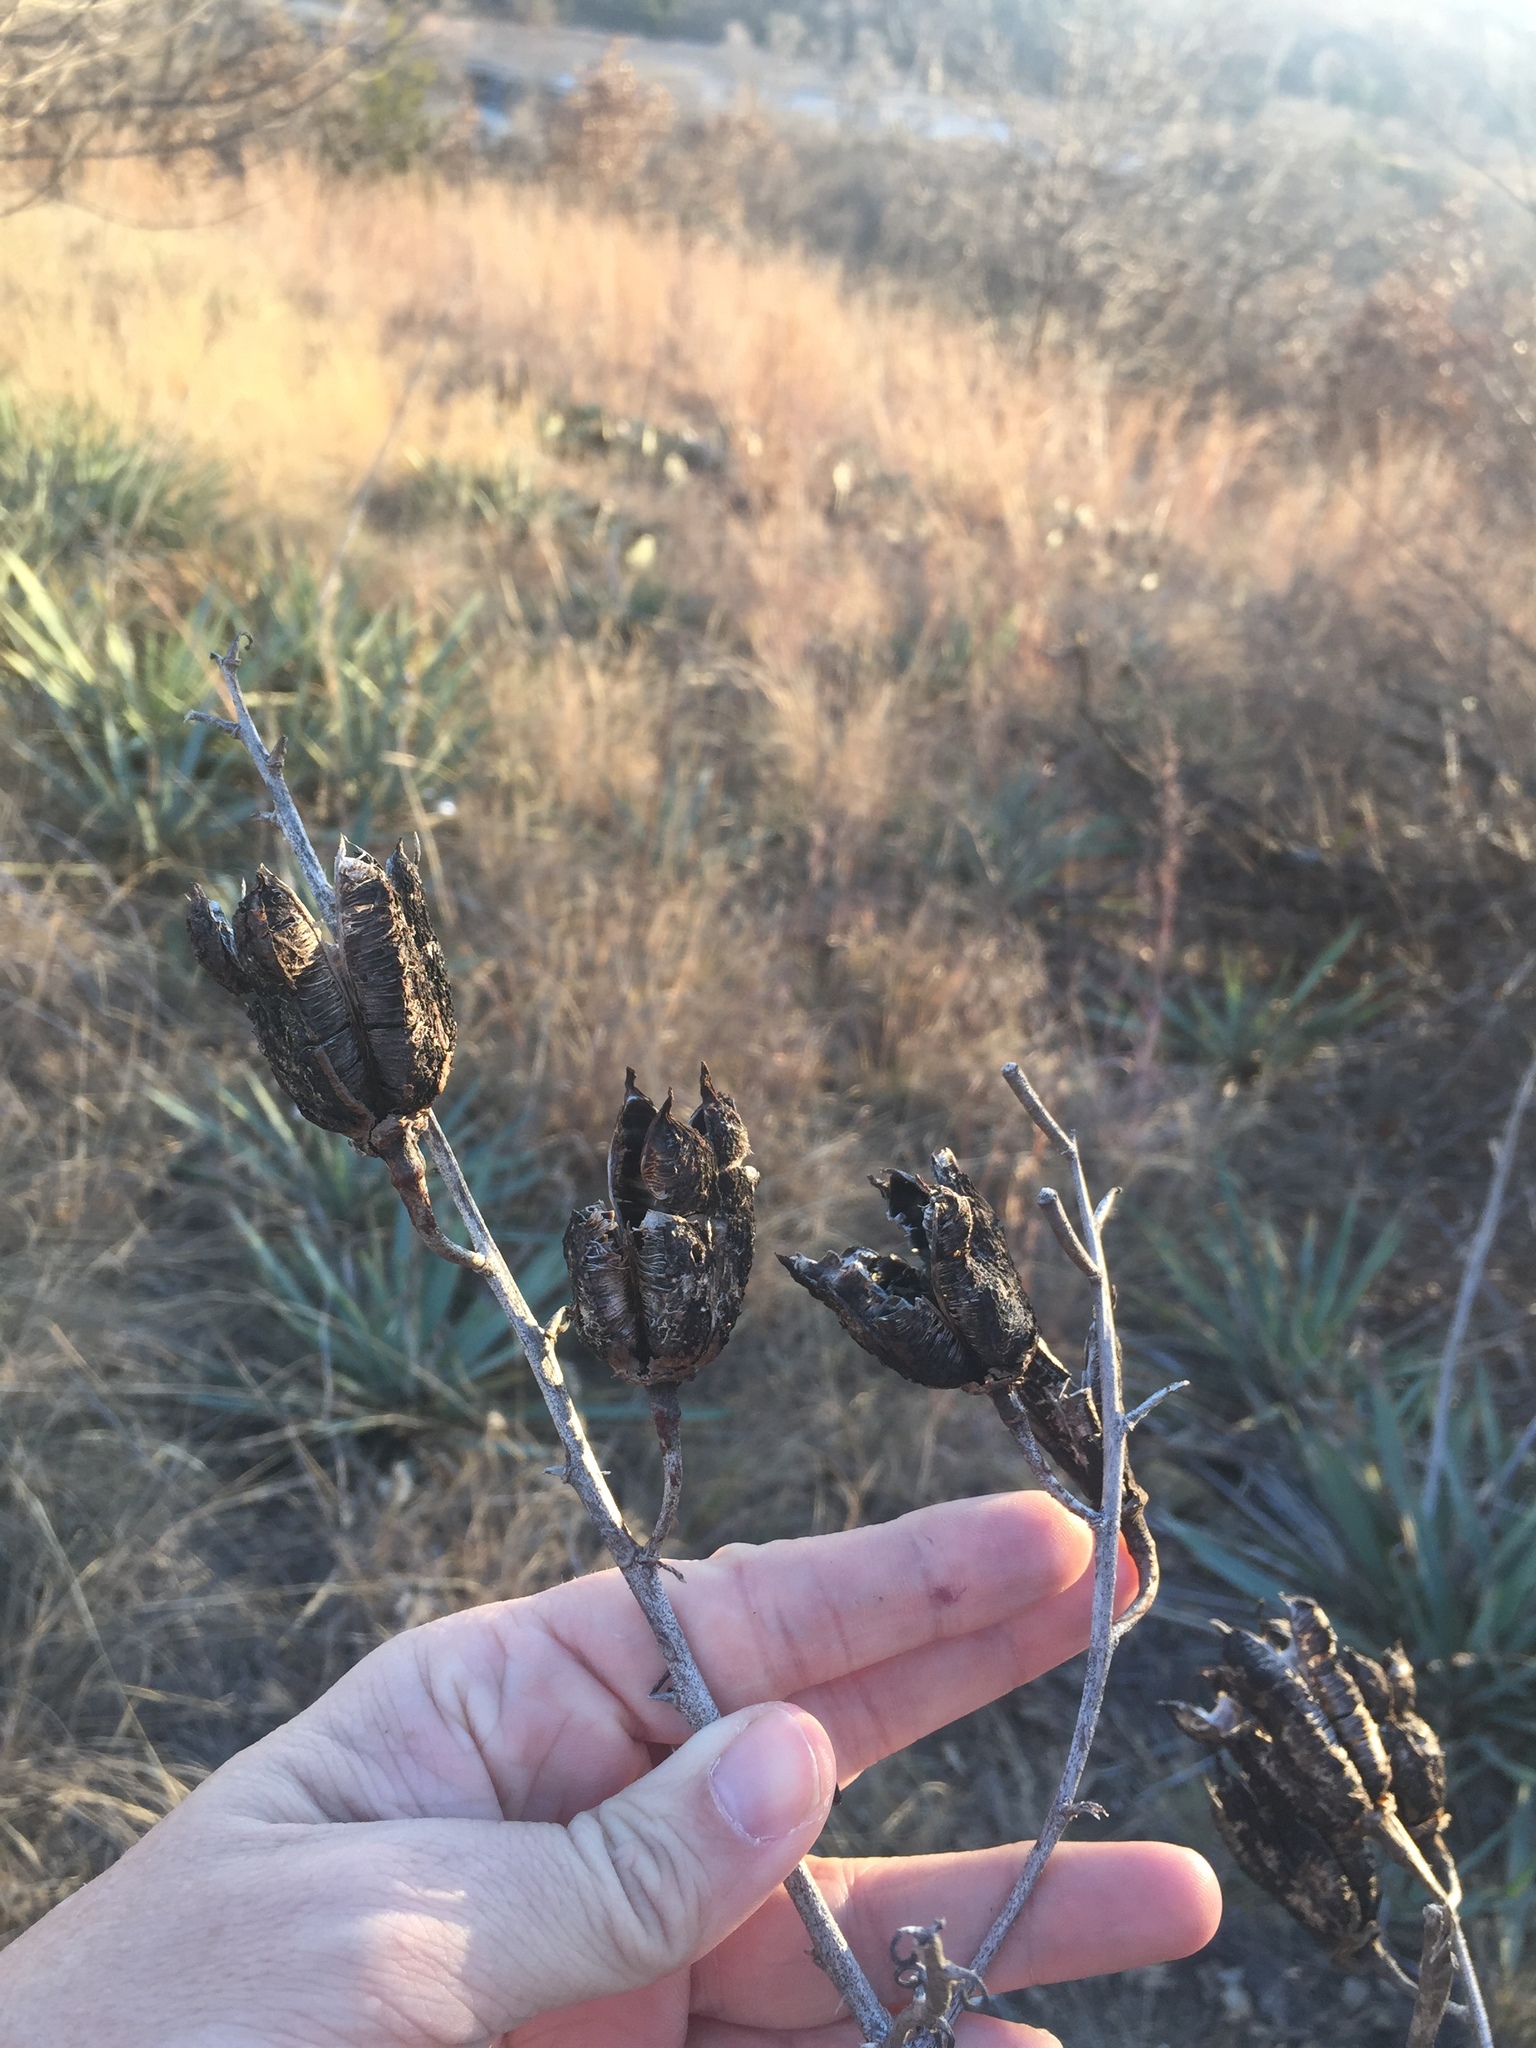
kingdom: Plantae
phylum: Tracheophyta
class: Liliopsida
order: Asparagales
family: Asparagaceae
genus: Yucca
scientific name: Yucca pallida
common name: Pale leaf yucca
